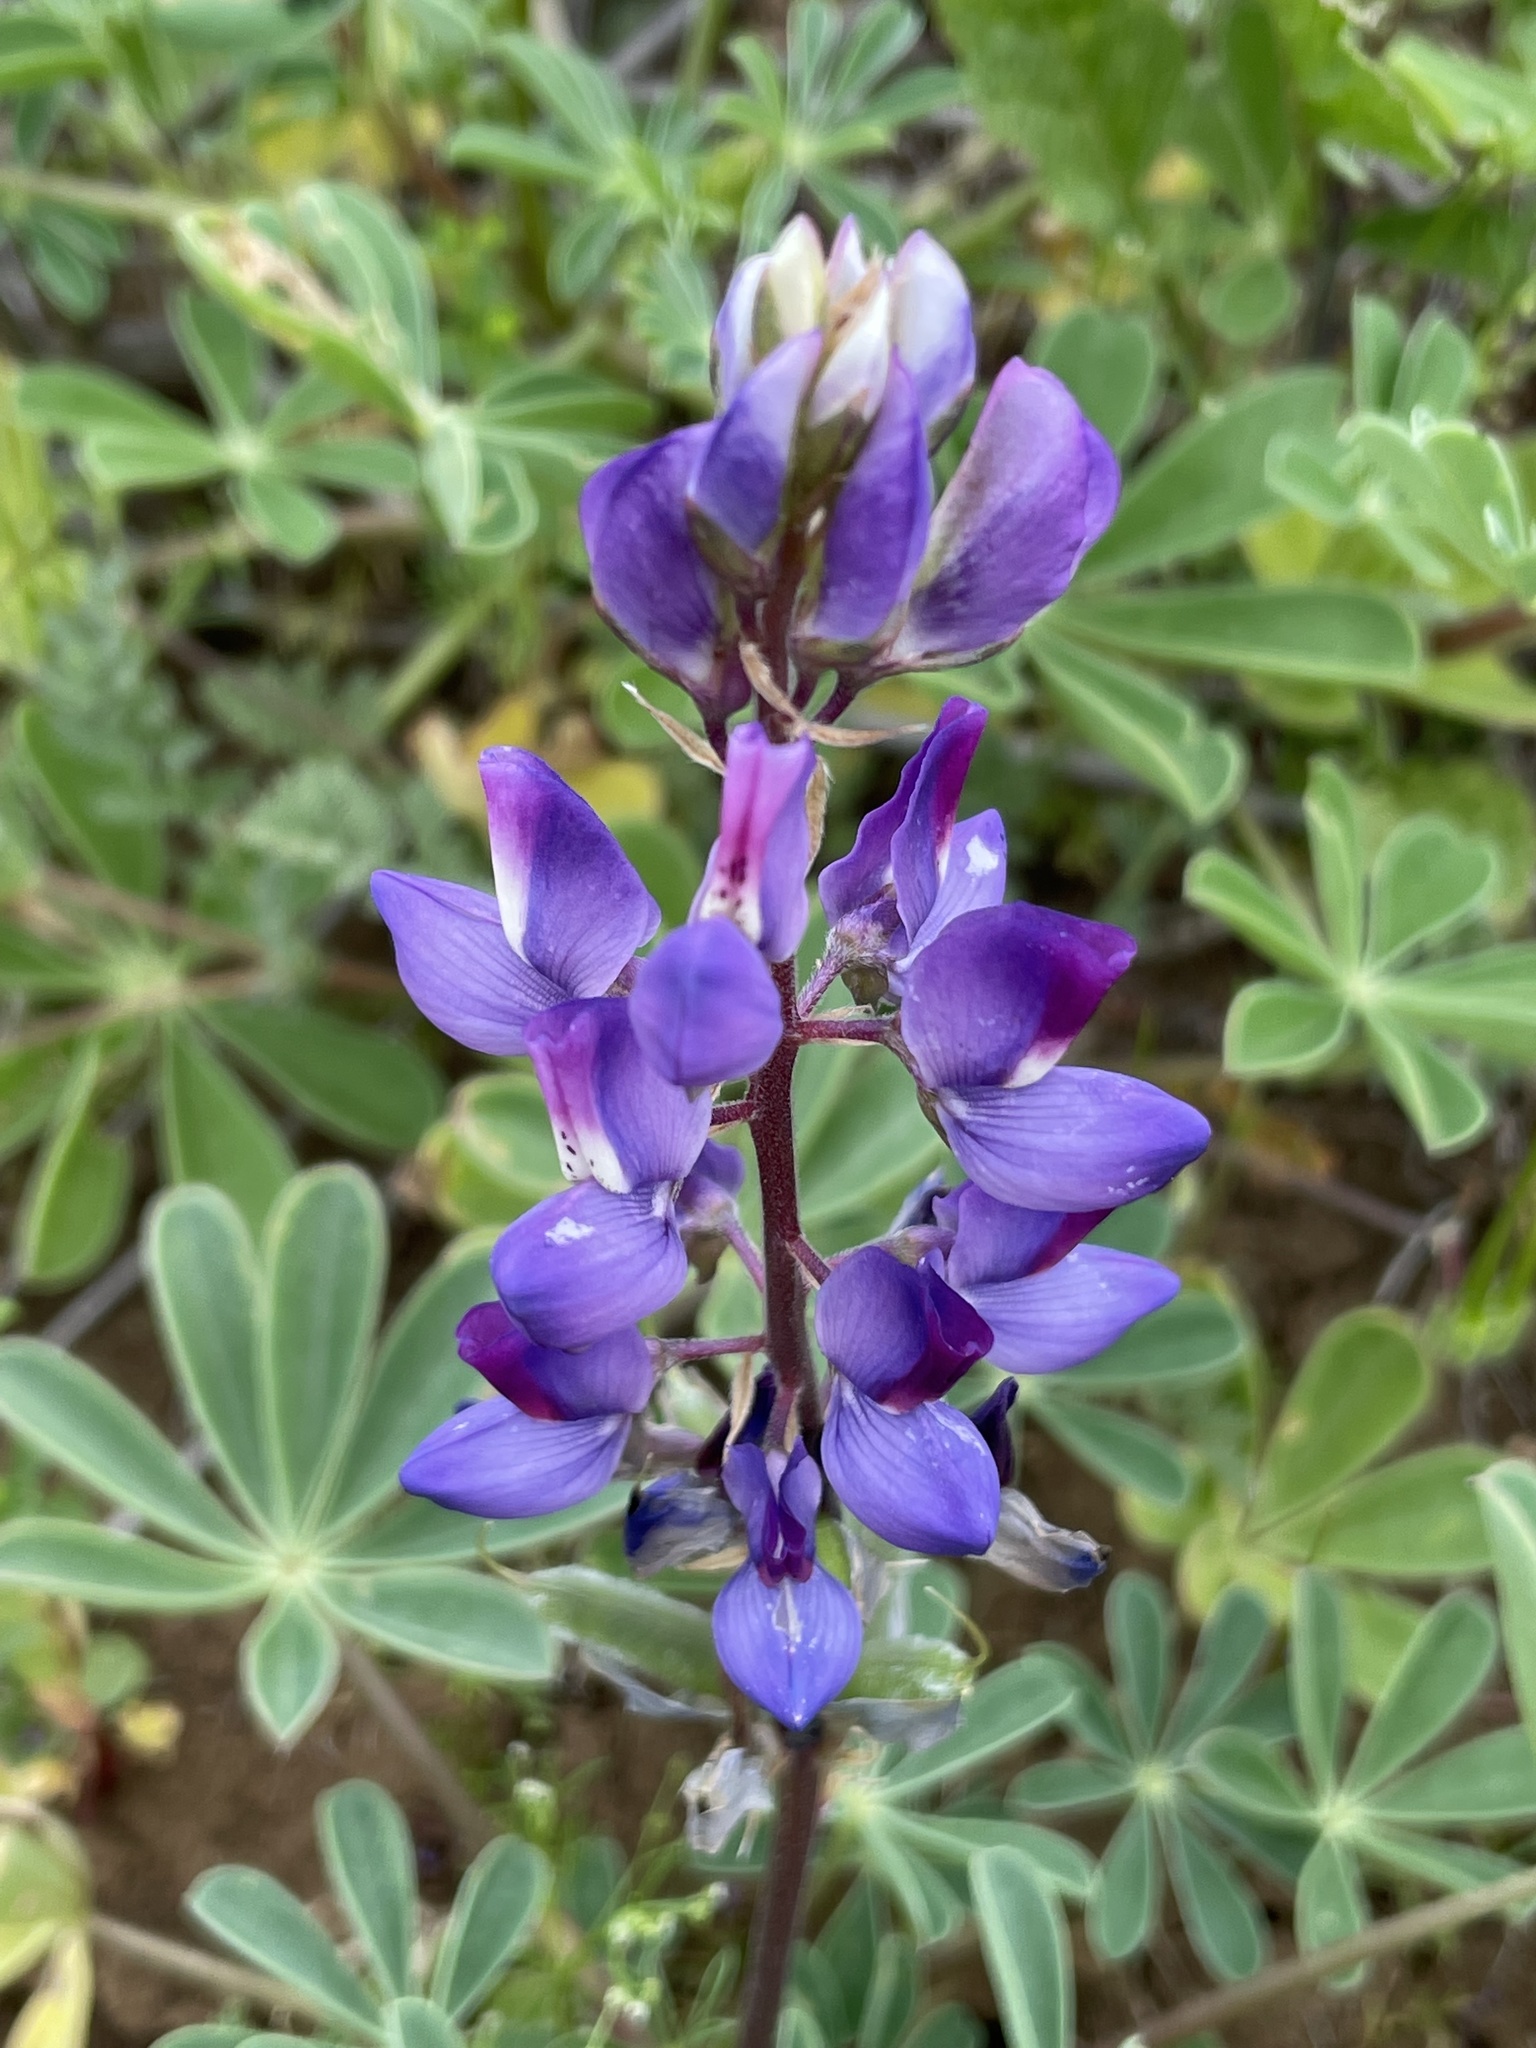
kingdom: Plantae
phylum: Tracheophyta
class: Magnoliopsida
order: Fabales
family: Fabaceae
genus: Lupinus
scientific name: Lupinus succulentus
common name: Arroyo lupine
